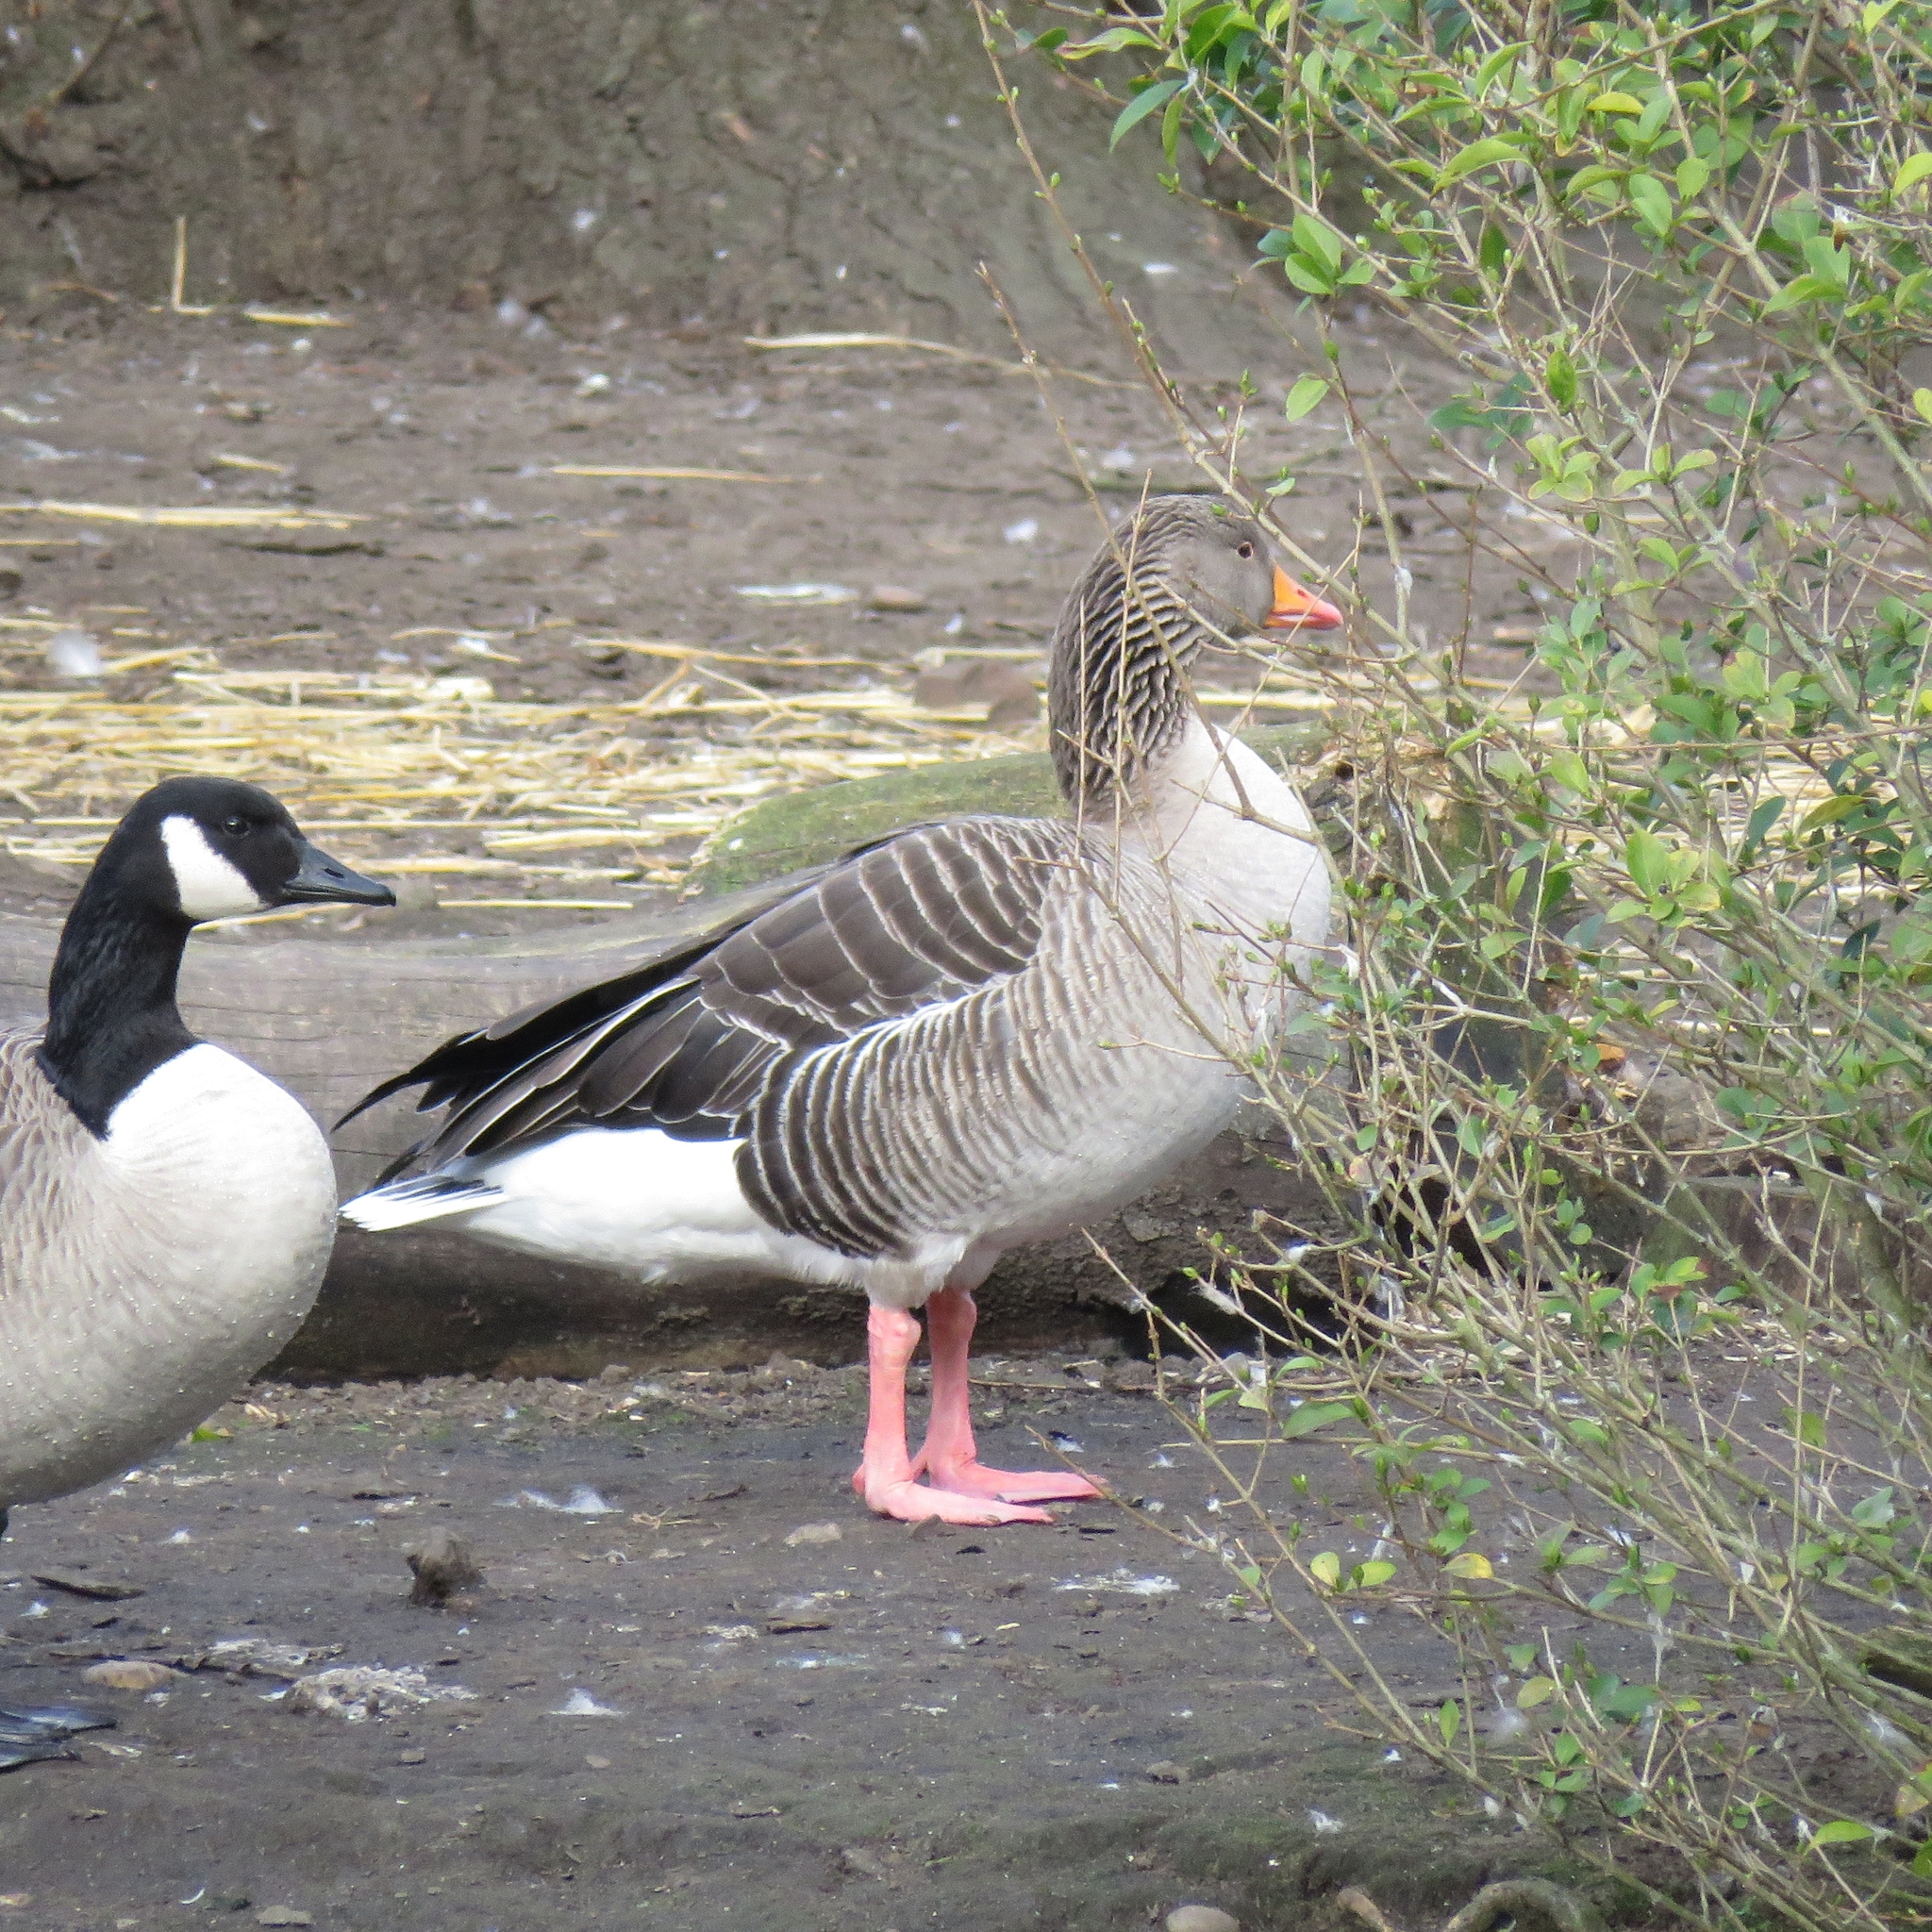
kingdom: Animalia
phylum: Chordata
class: Aves
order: Anseriformes
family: Anatidae
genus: Anser
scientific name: Anser anser
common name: Greylag goose
